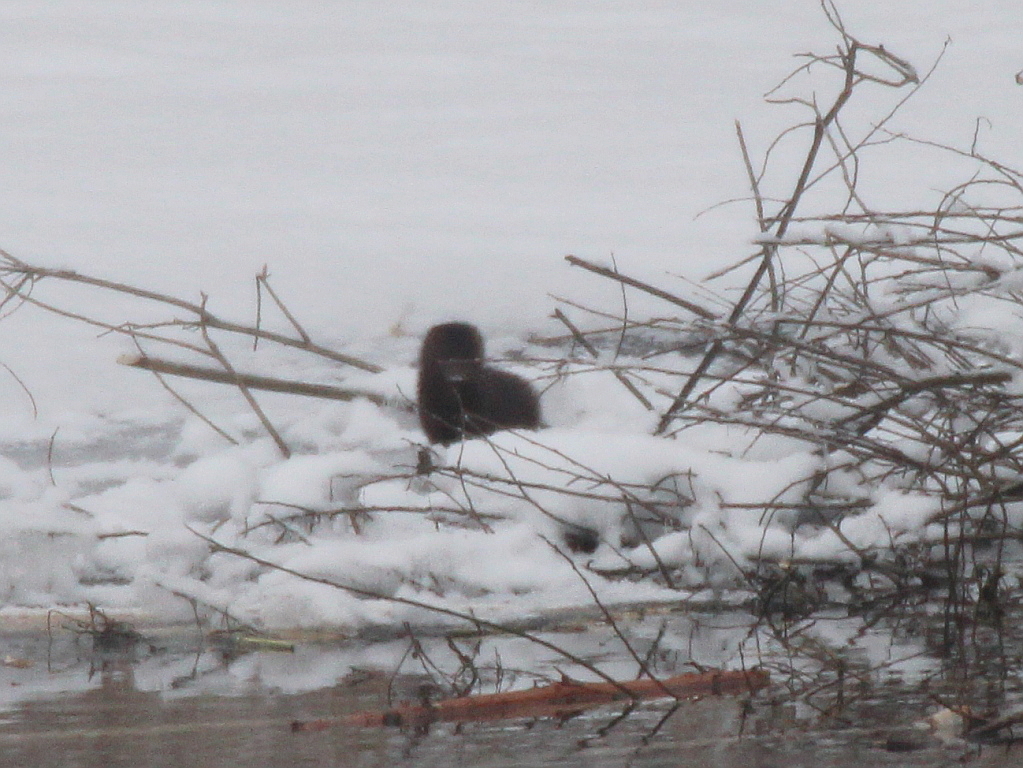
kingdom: Animalia
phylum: Chordata
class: Mammalia
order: Carnivora
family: Mustelidae
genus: Mustela
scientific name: Mustela
